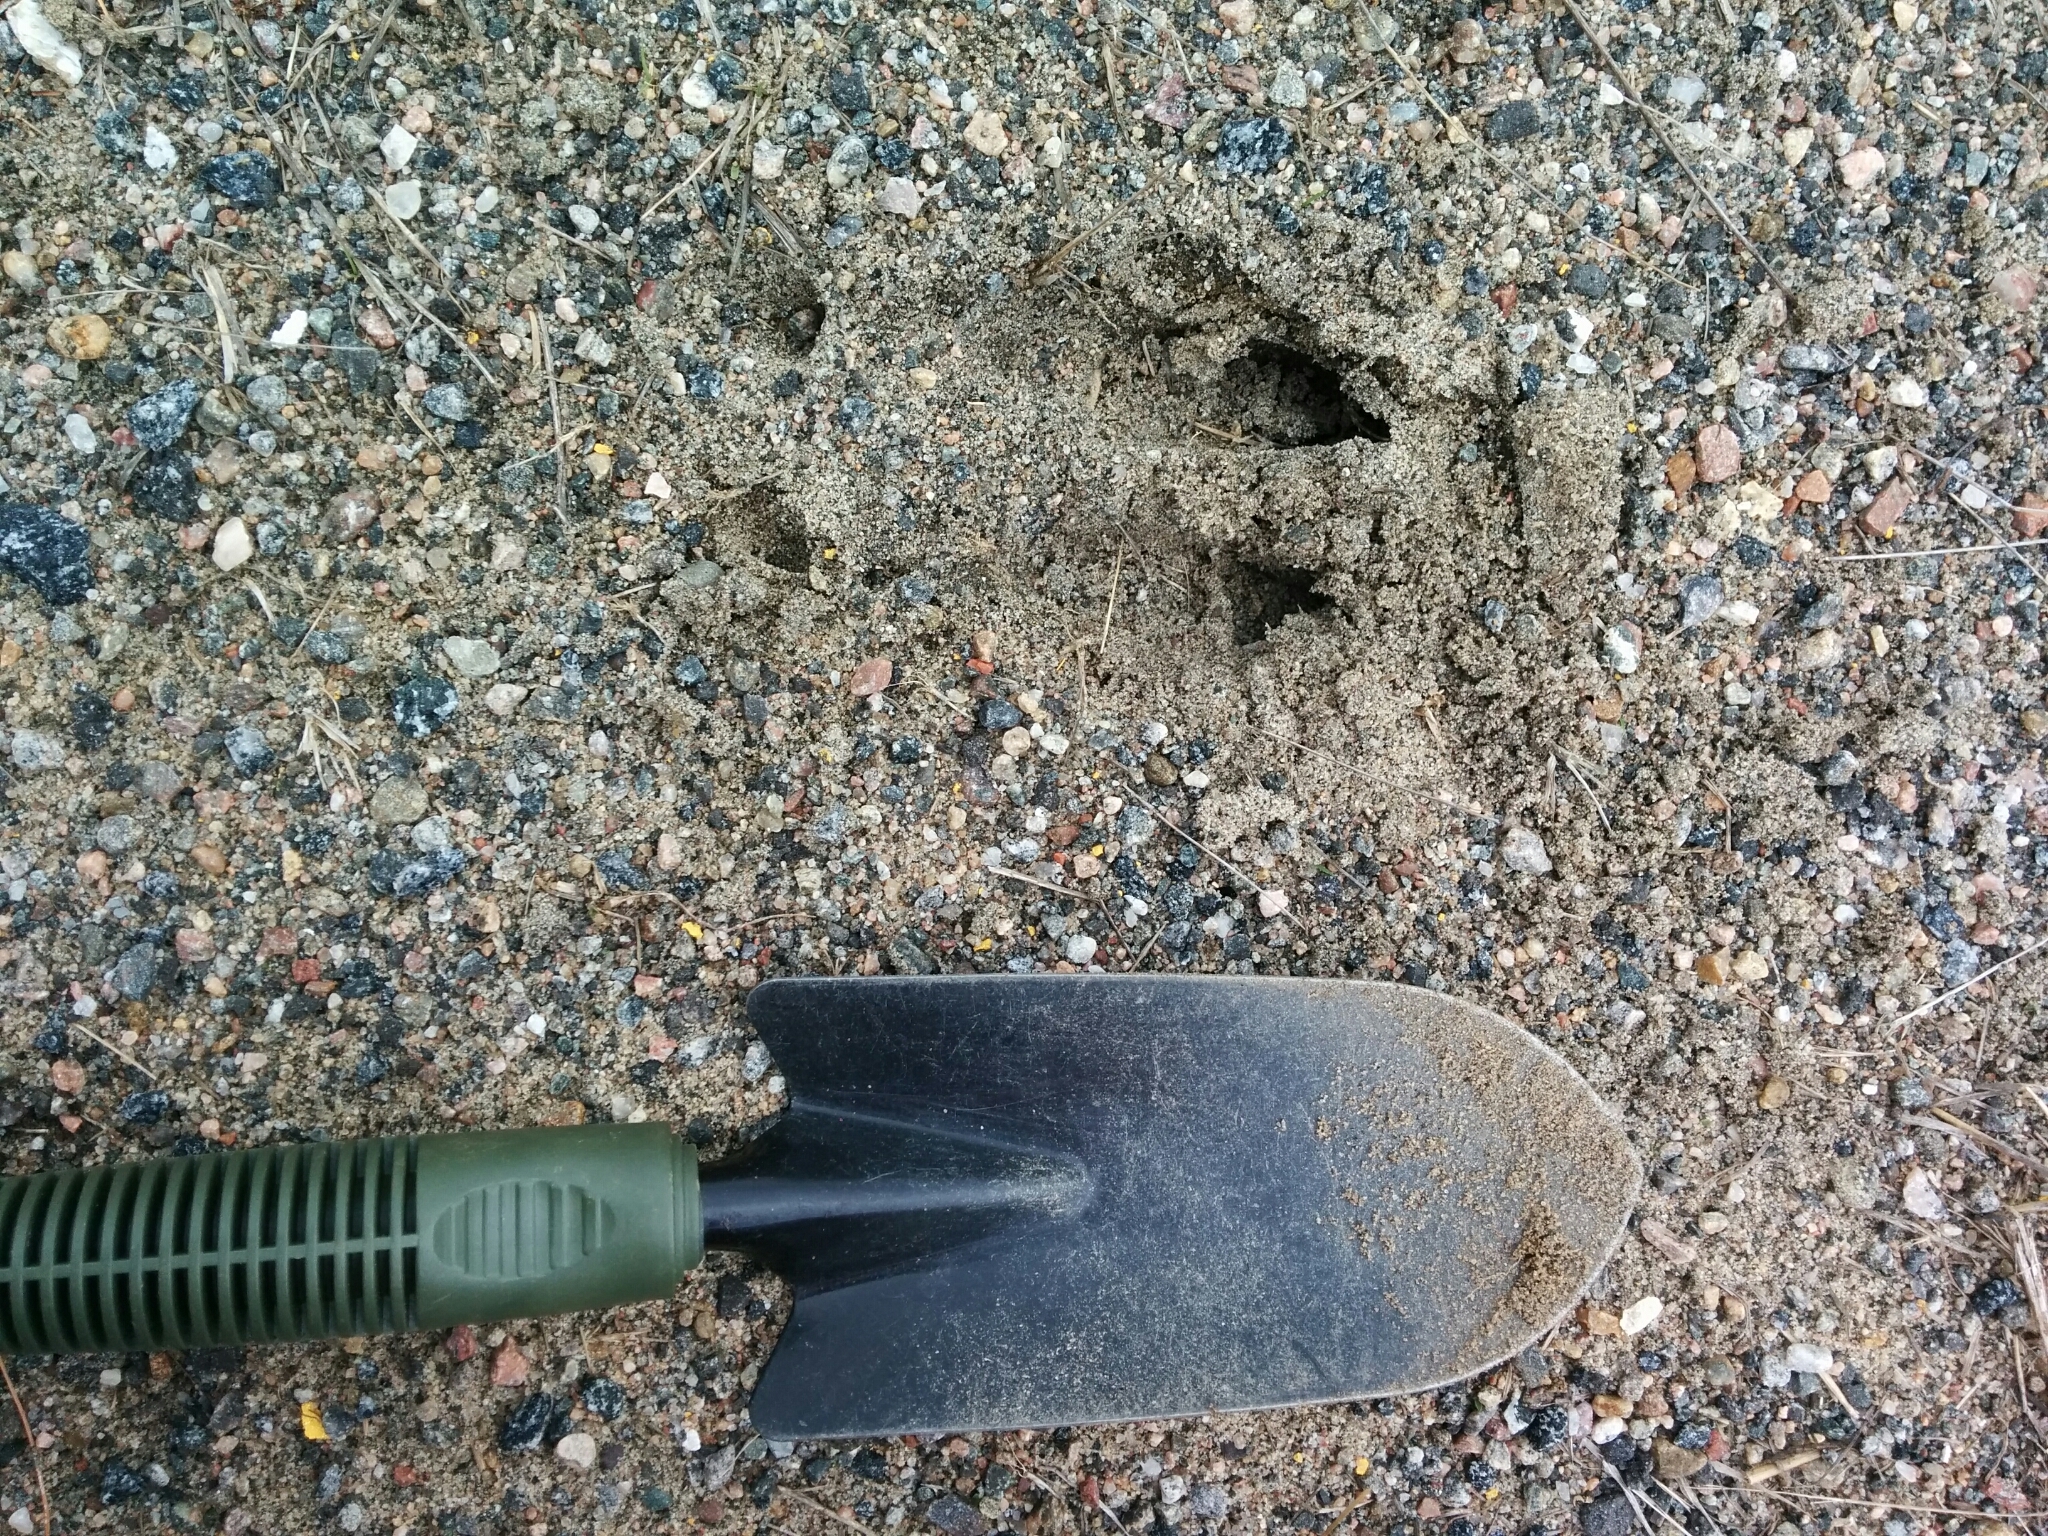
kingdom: Animalia
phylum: Chordata
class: Mammalia
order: Artiodactyla
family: Cervidae
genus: Odocoileus
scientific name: Odocoileus virginianus
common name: White-tailed deer
